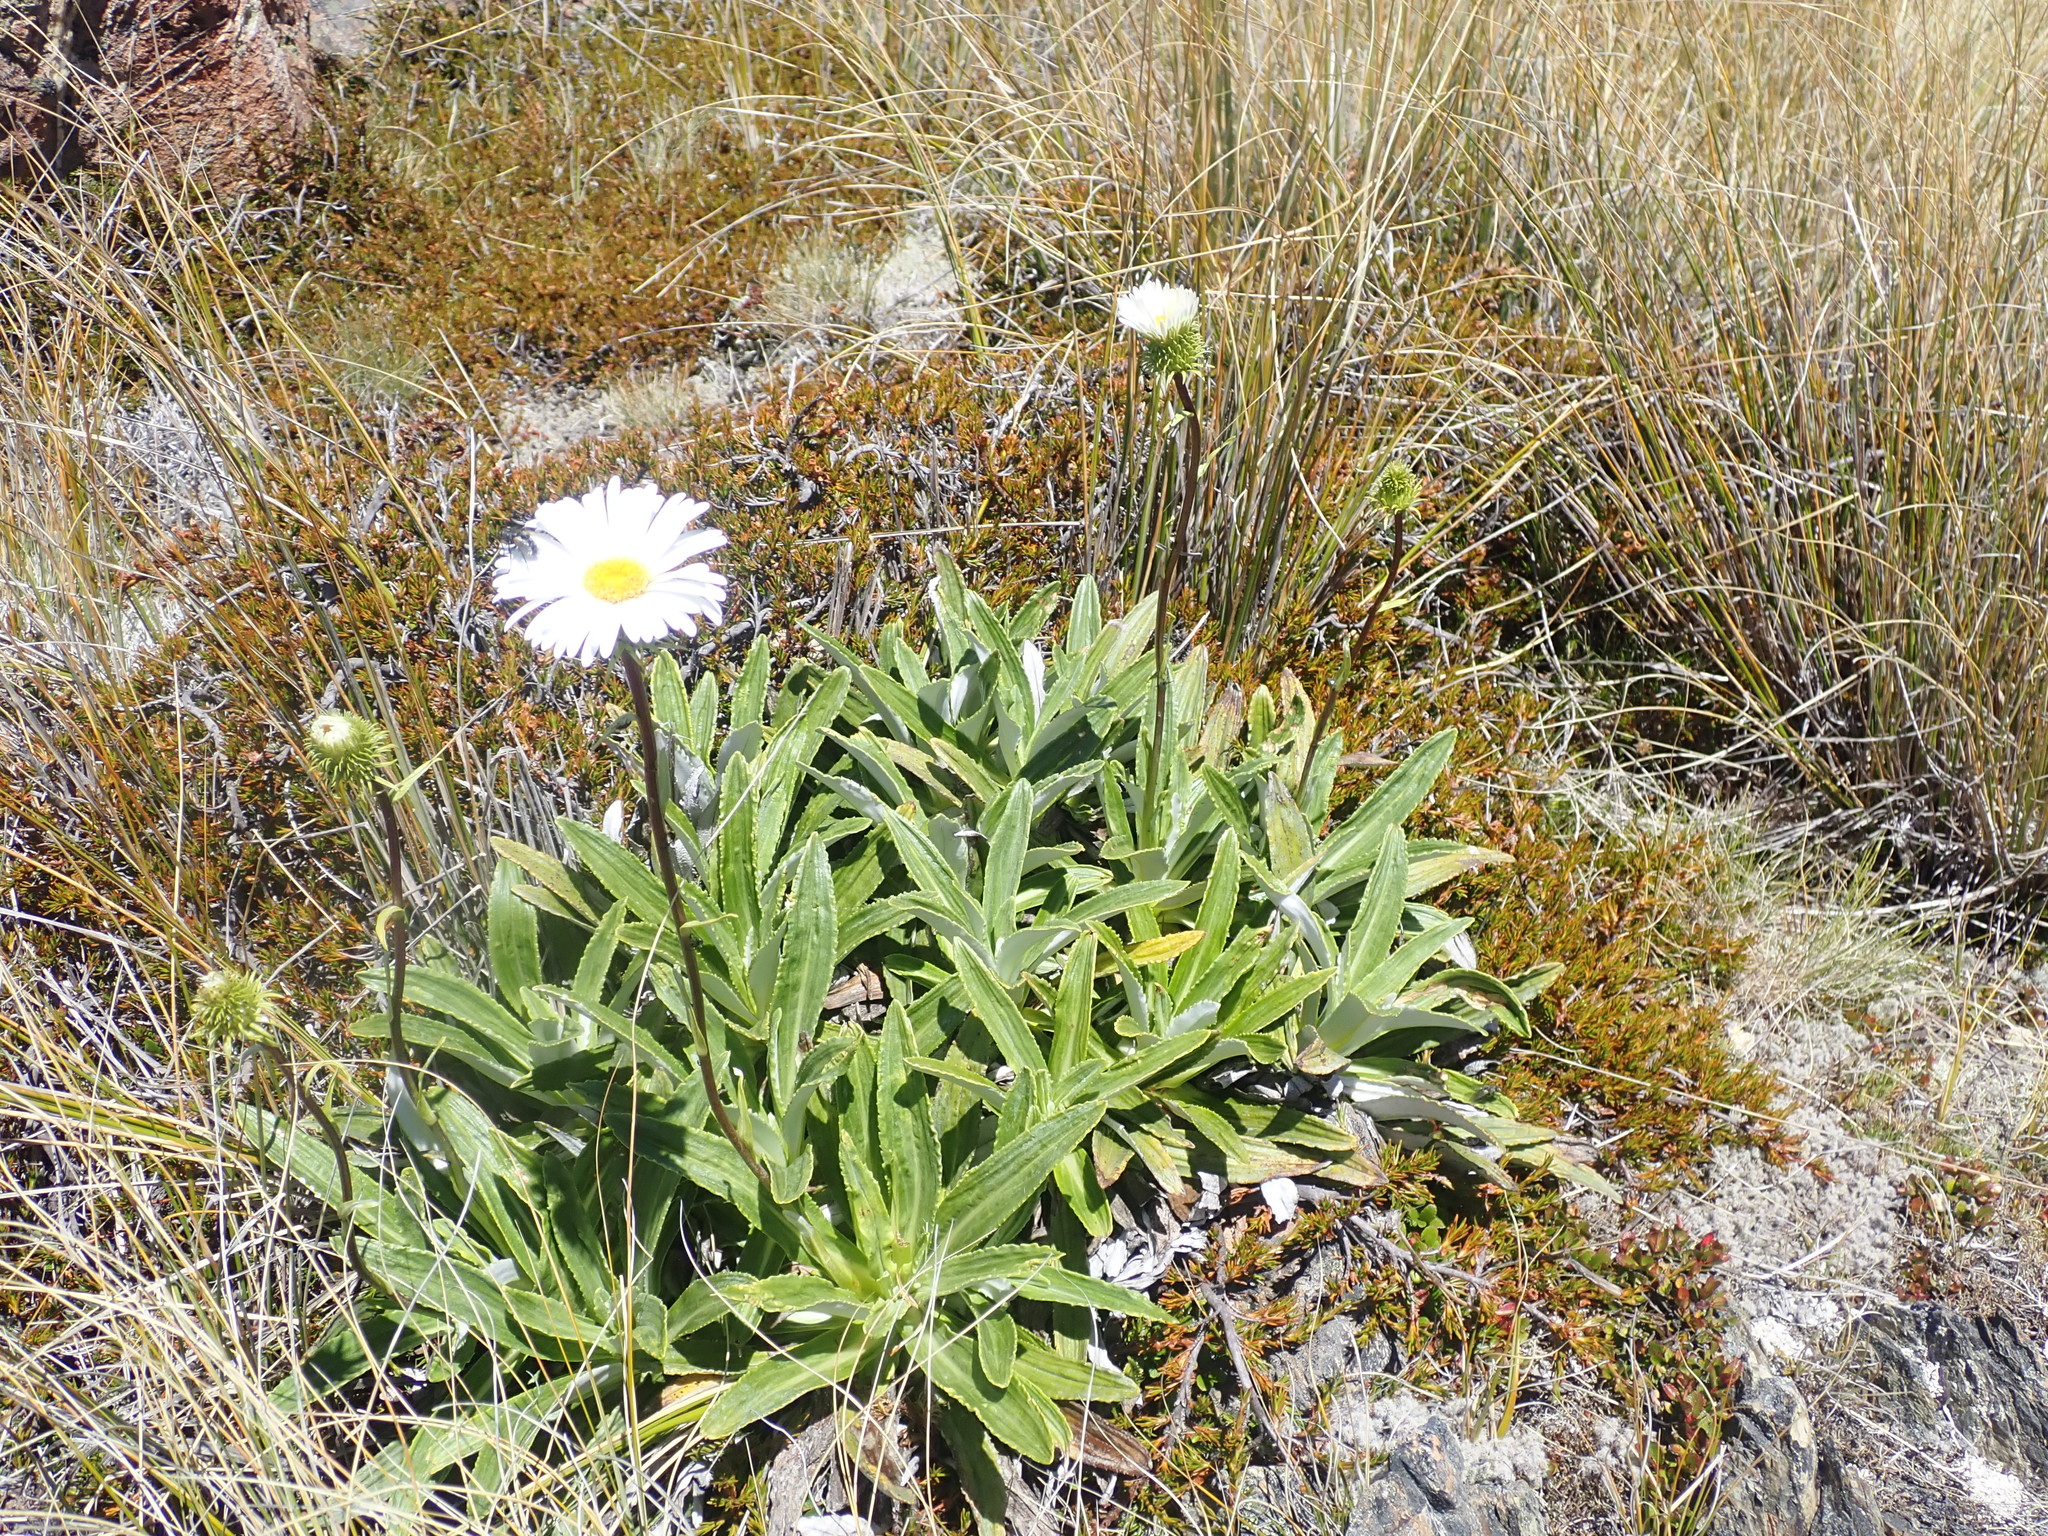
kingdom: Plantae
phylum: Tracheophyta
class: Magnoliopsida
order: Asterales
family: Asteraceae
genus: Celmisia
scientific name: Celmisia densiflora
